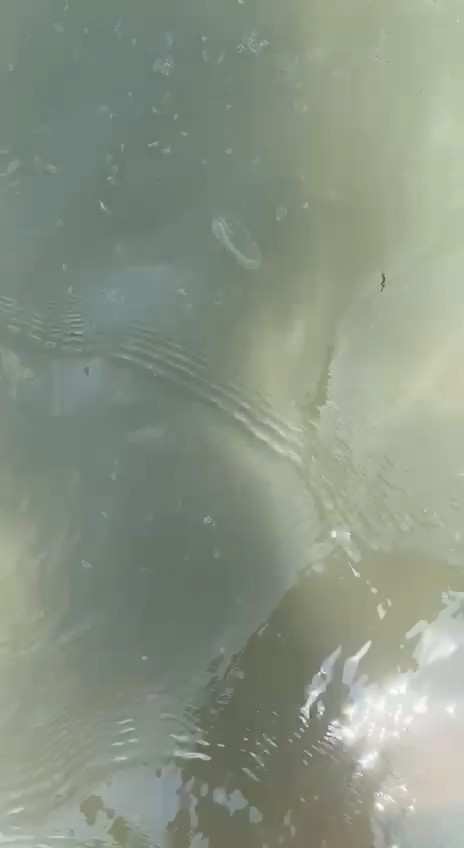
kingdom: Animalia
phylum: Cnidaria
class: Hydrozoa
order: Limnomedusae
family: Olindiidae
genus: Craspedacusta
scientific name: Craspedacusta sowerbii
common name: Freshwater jellyfish
